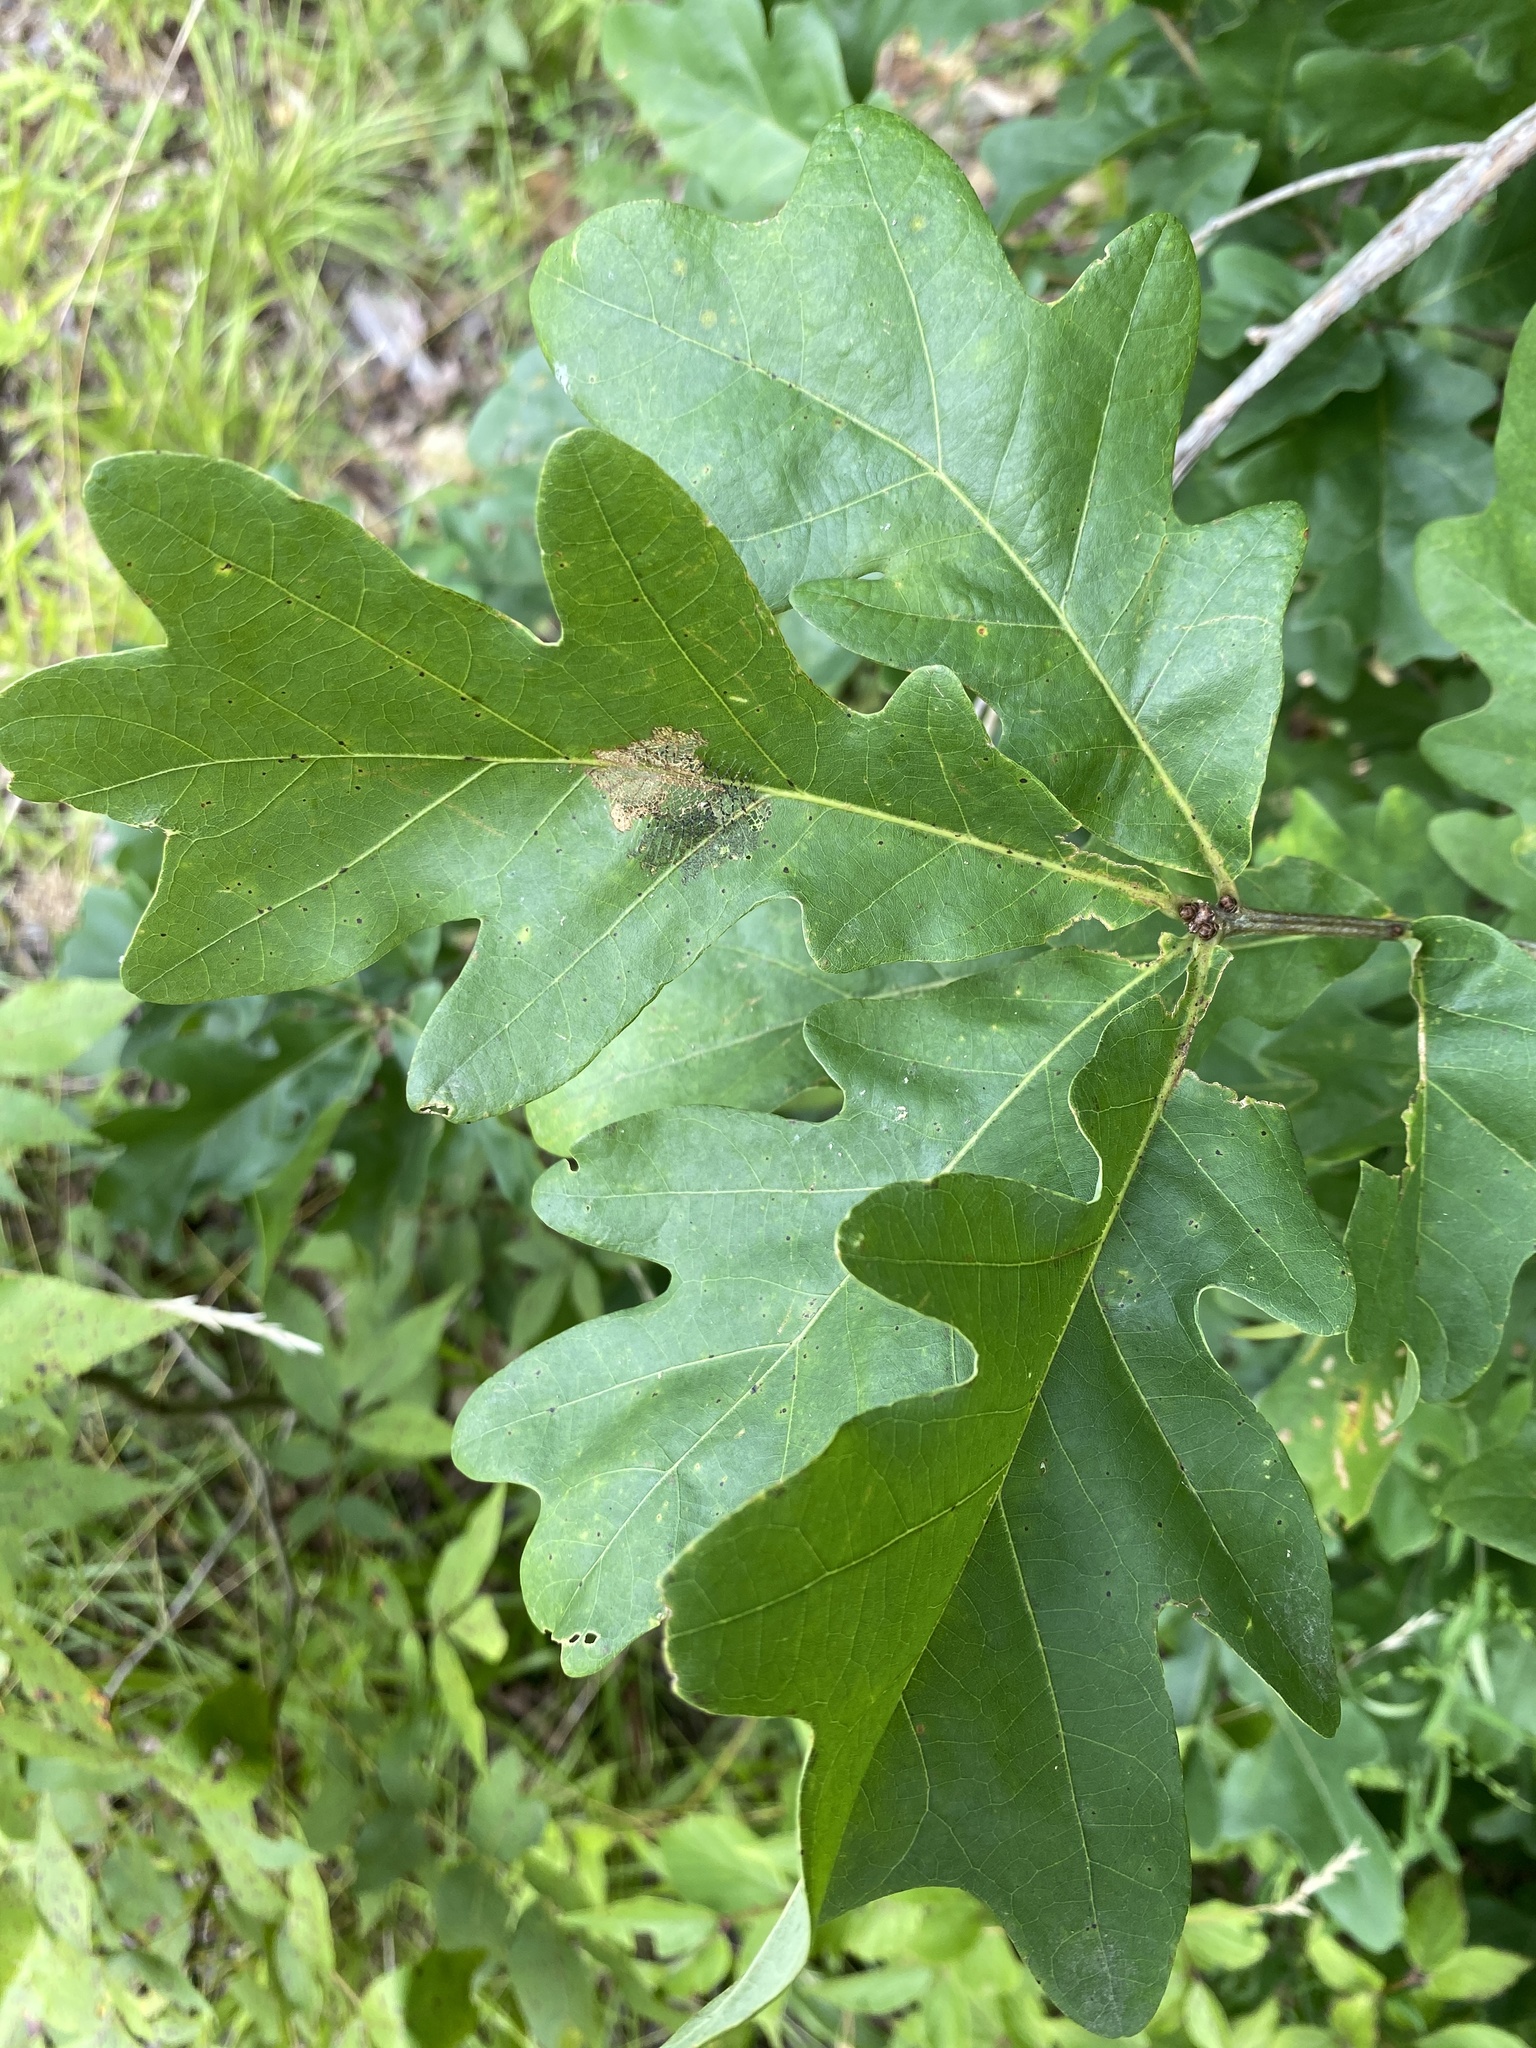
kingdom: Plantae
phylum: Tracheophyta
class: Magnoliopsida
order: Fagales
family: Fagaceae
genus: Quercus
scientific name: Quercus alba
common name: White oak
